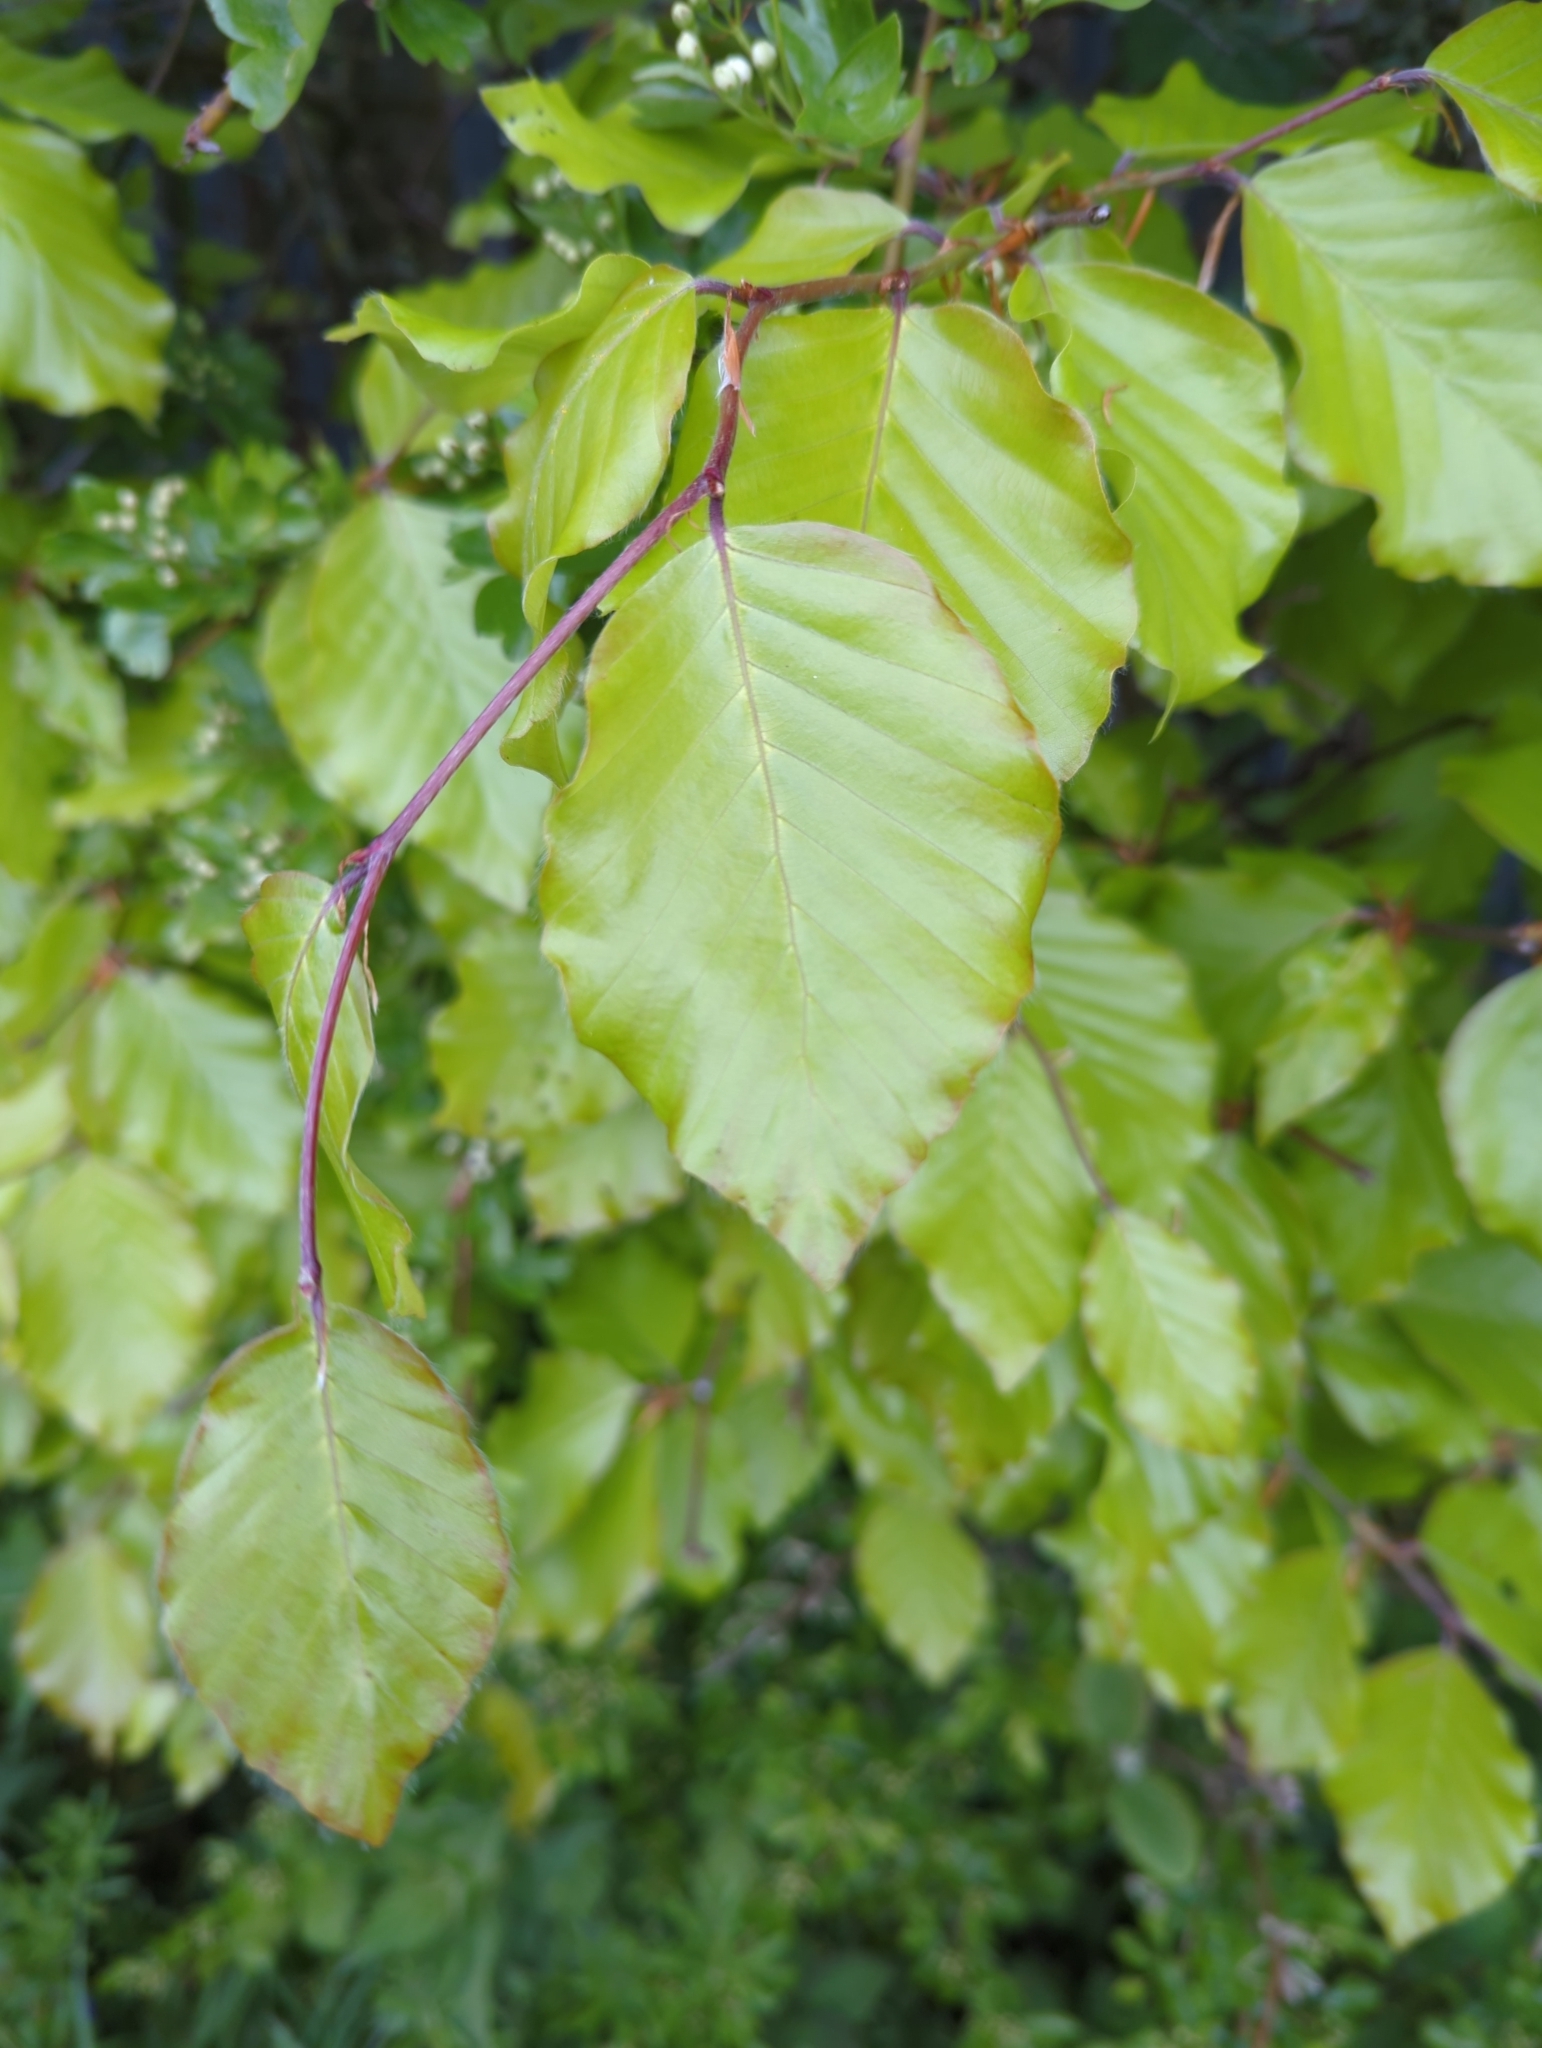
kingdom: Plantae
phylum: Tracheophyta
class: Magnoliopsida
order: Fagales
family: Fagaceae
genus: Fagus
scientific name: Fagus sylvatica
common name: Beech
